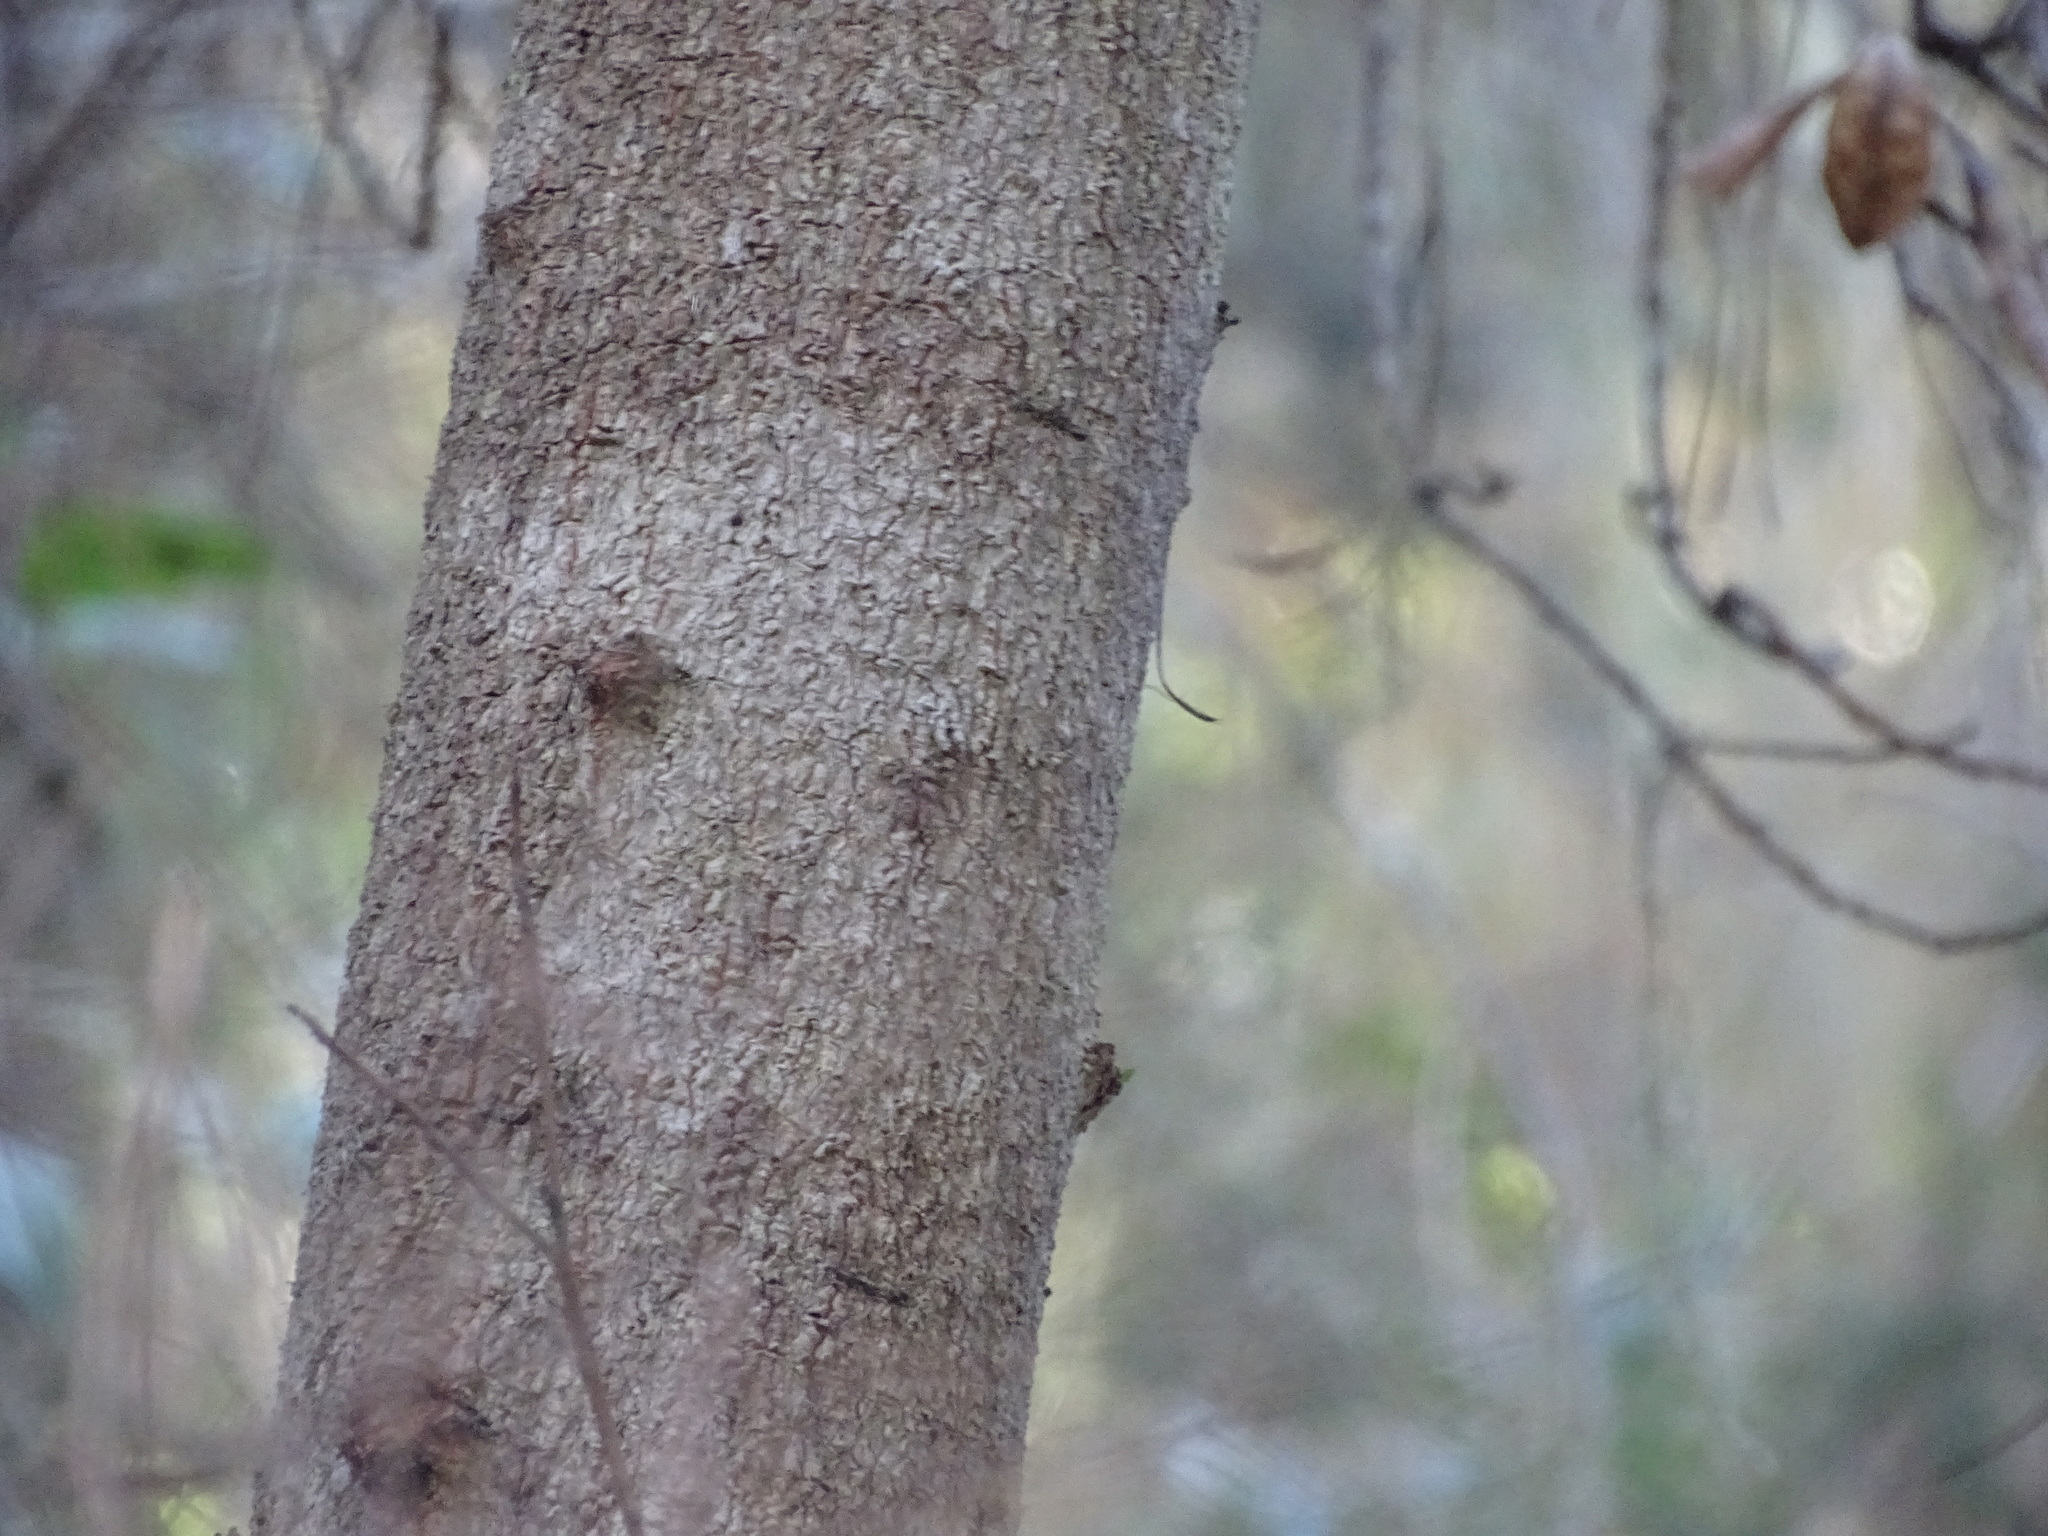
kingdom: Plantae
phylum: Tracheophyta
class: Magnoliopsida
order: Fagales
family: Myricaceae
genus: Morella
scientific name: Morella faya
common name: Firetree
